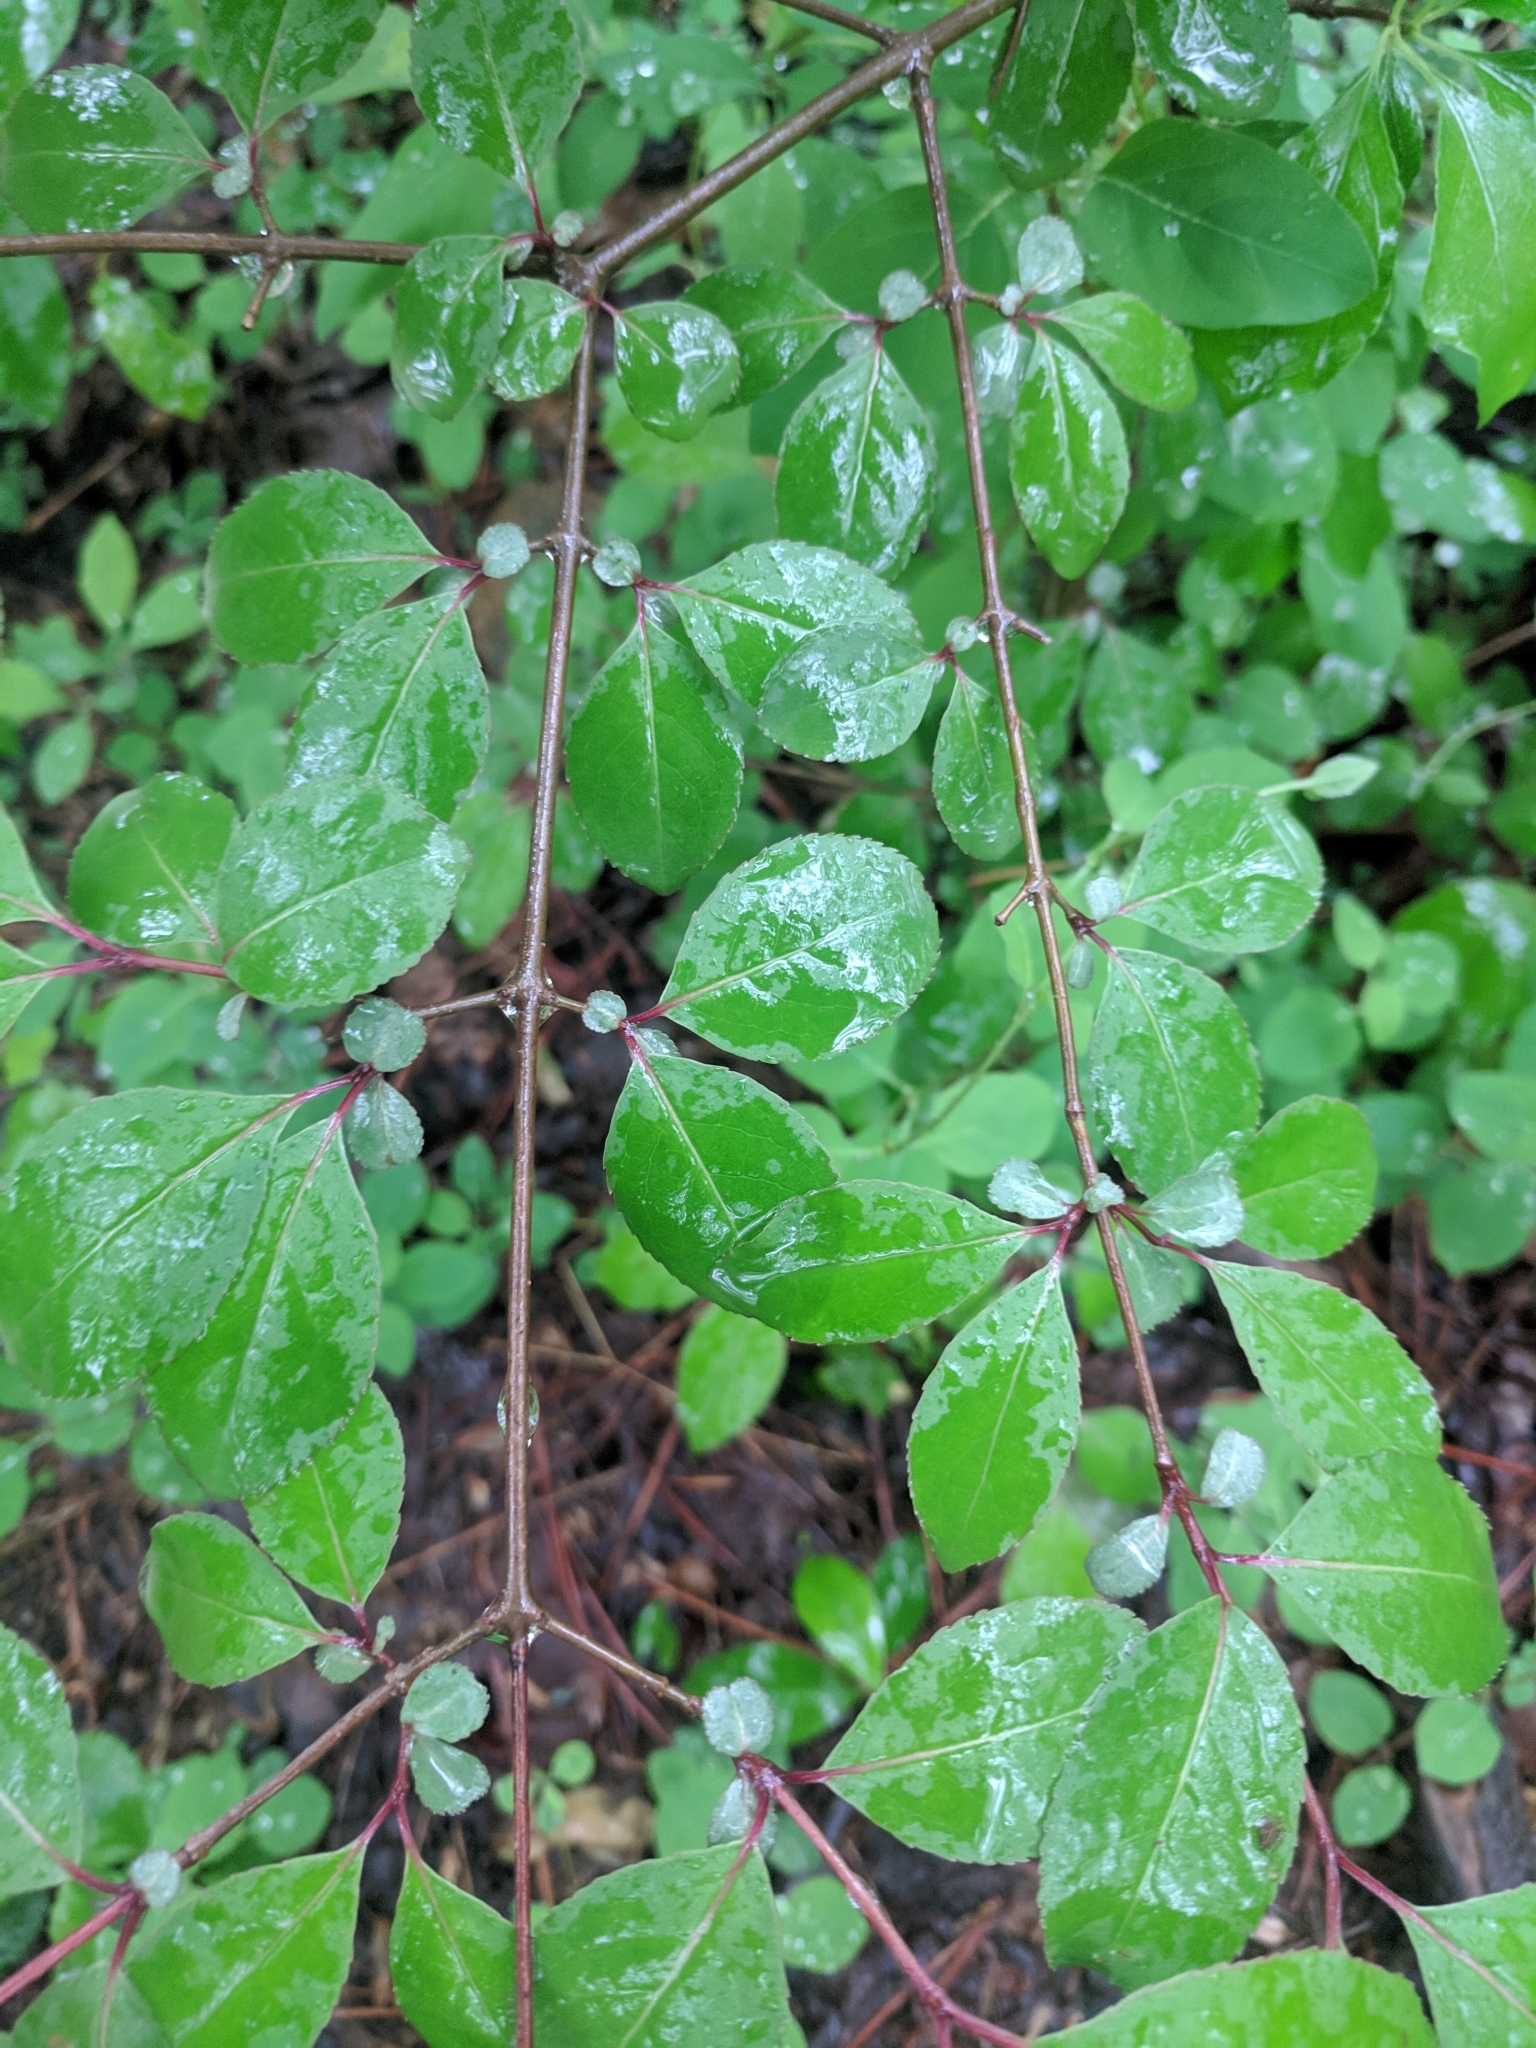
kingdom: Plantae
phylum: Tracheophyta
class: Magnoliopsida
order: Dipsacales
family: Viburnaceae
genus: Viburnum
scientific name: Viburnum prunifolium
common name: Black haw
